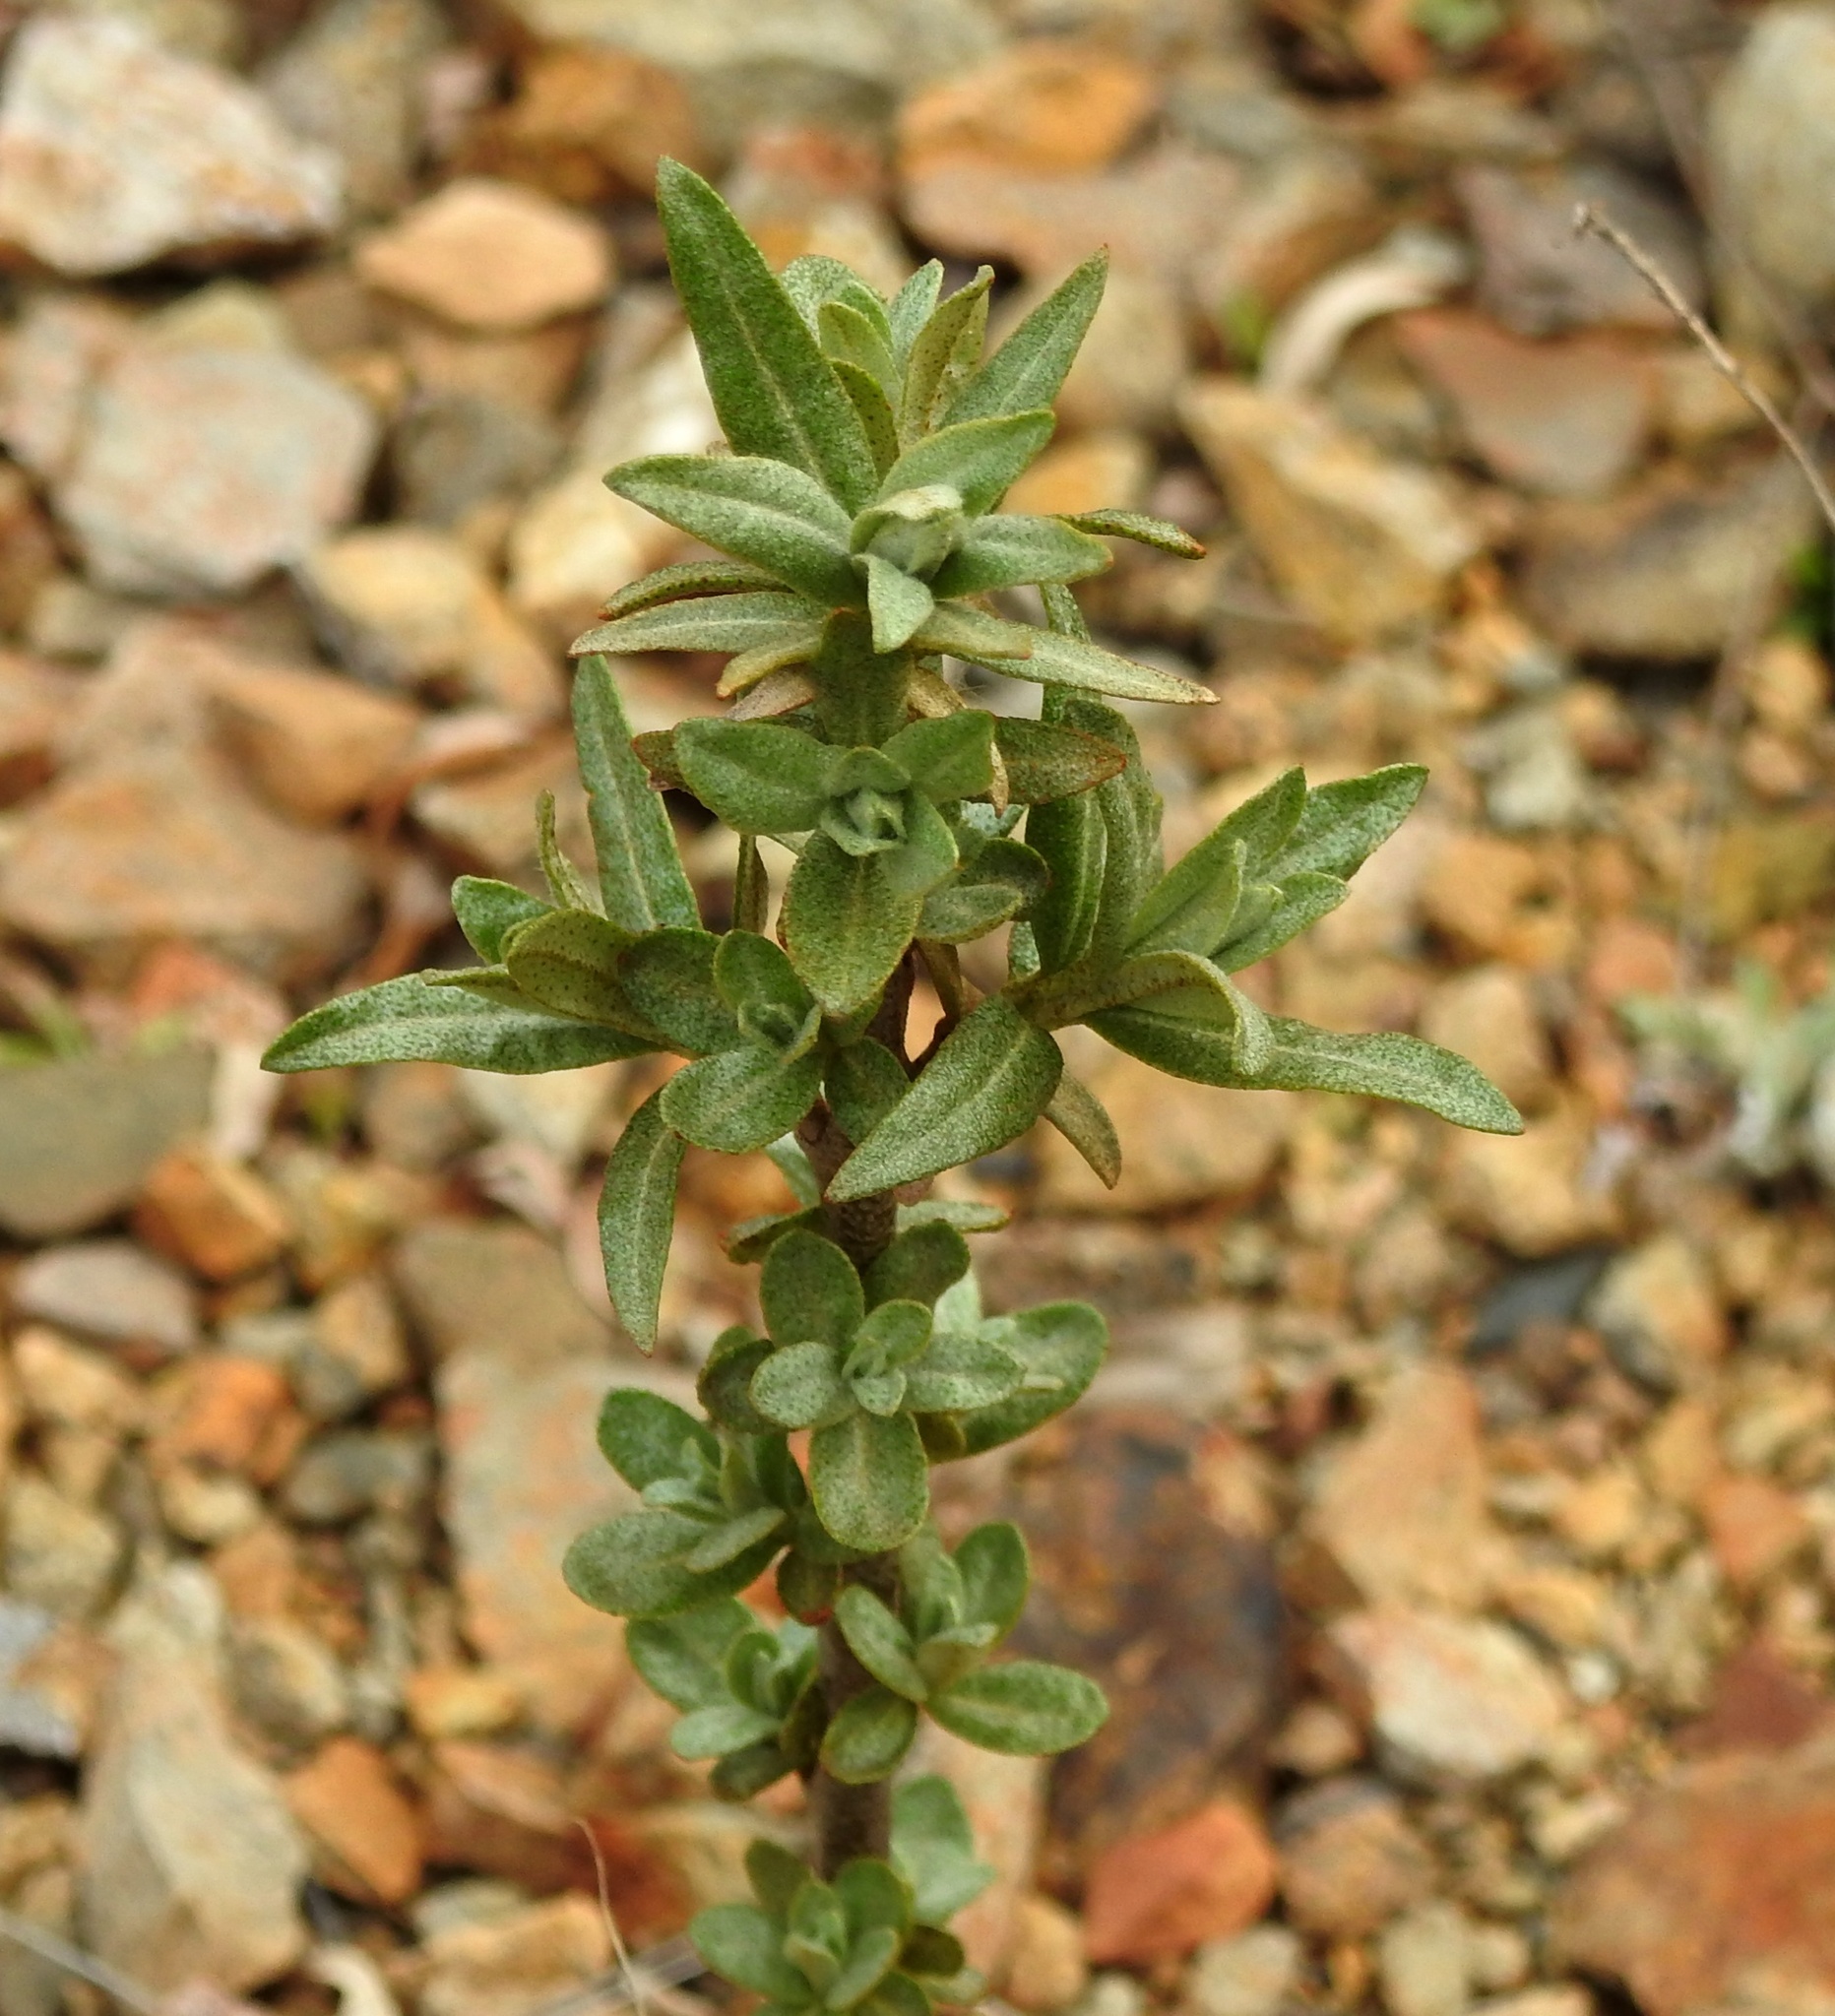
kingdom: Plantae
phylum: Tracheophyta
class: Magnoliopsida
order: Rosales
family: Elaeagnaceae
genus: Hippophae
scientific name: Hippophae rhamnoides
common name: Sea-buckthorn
